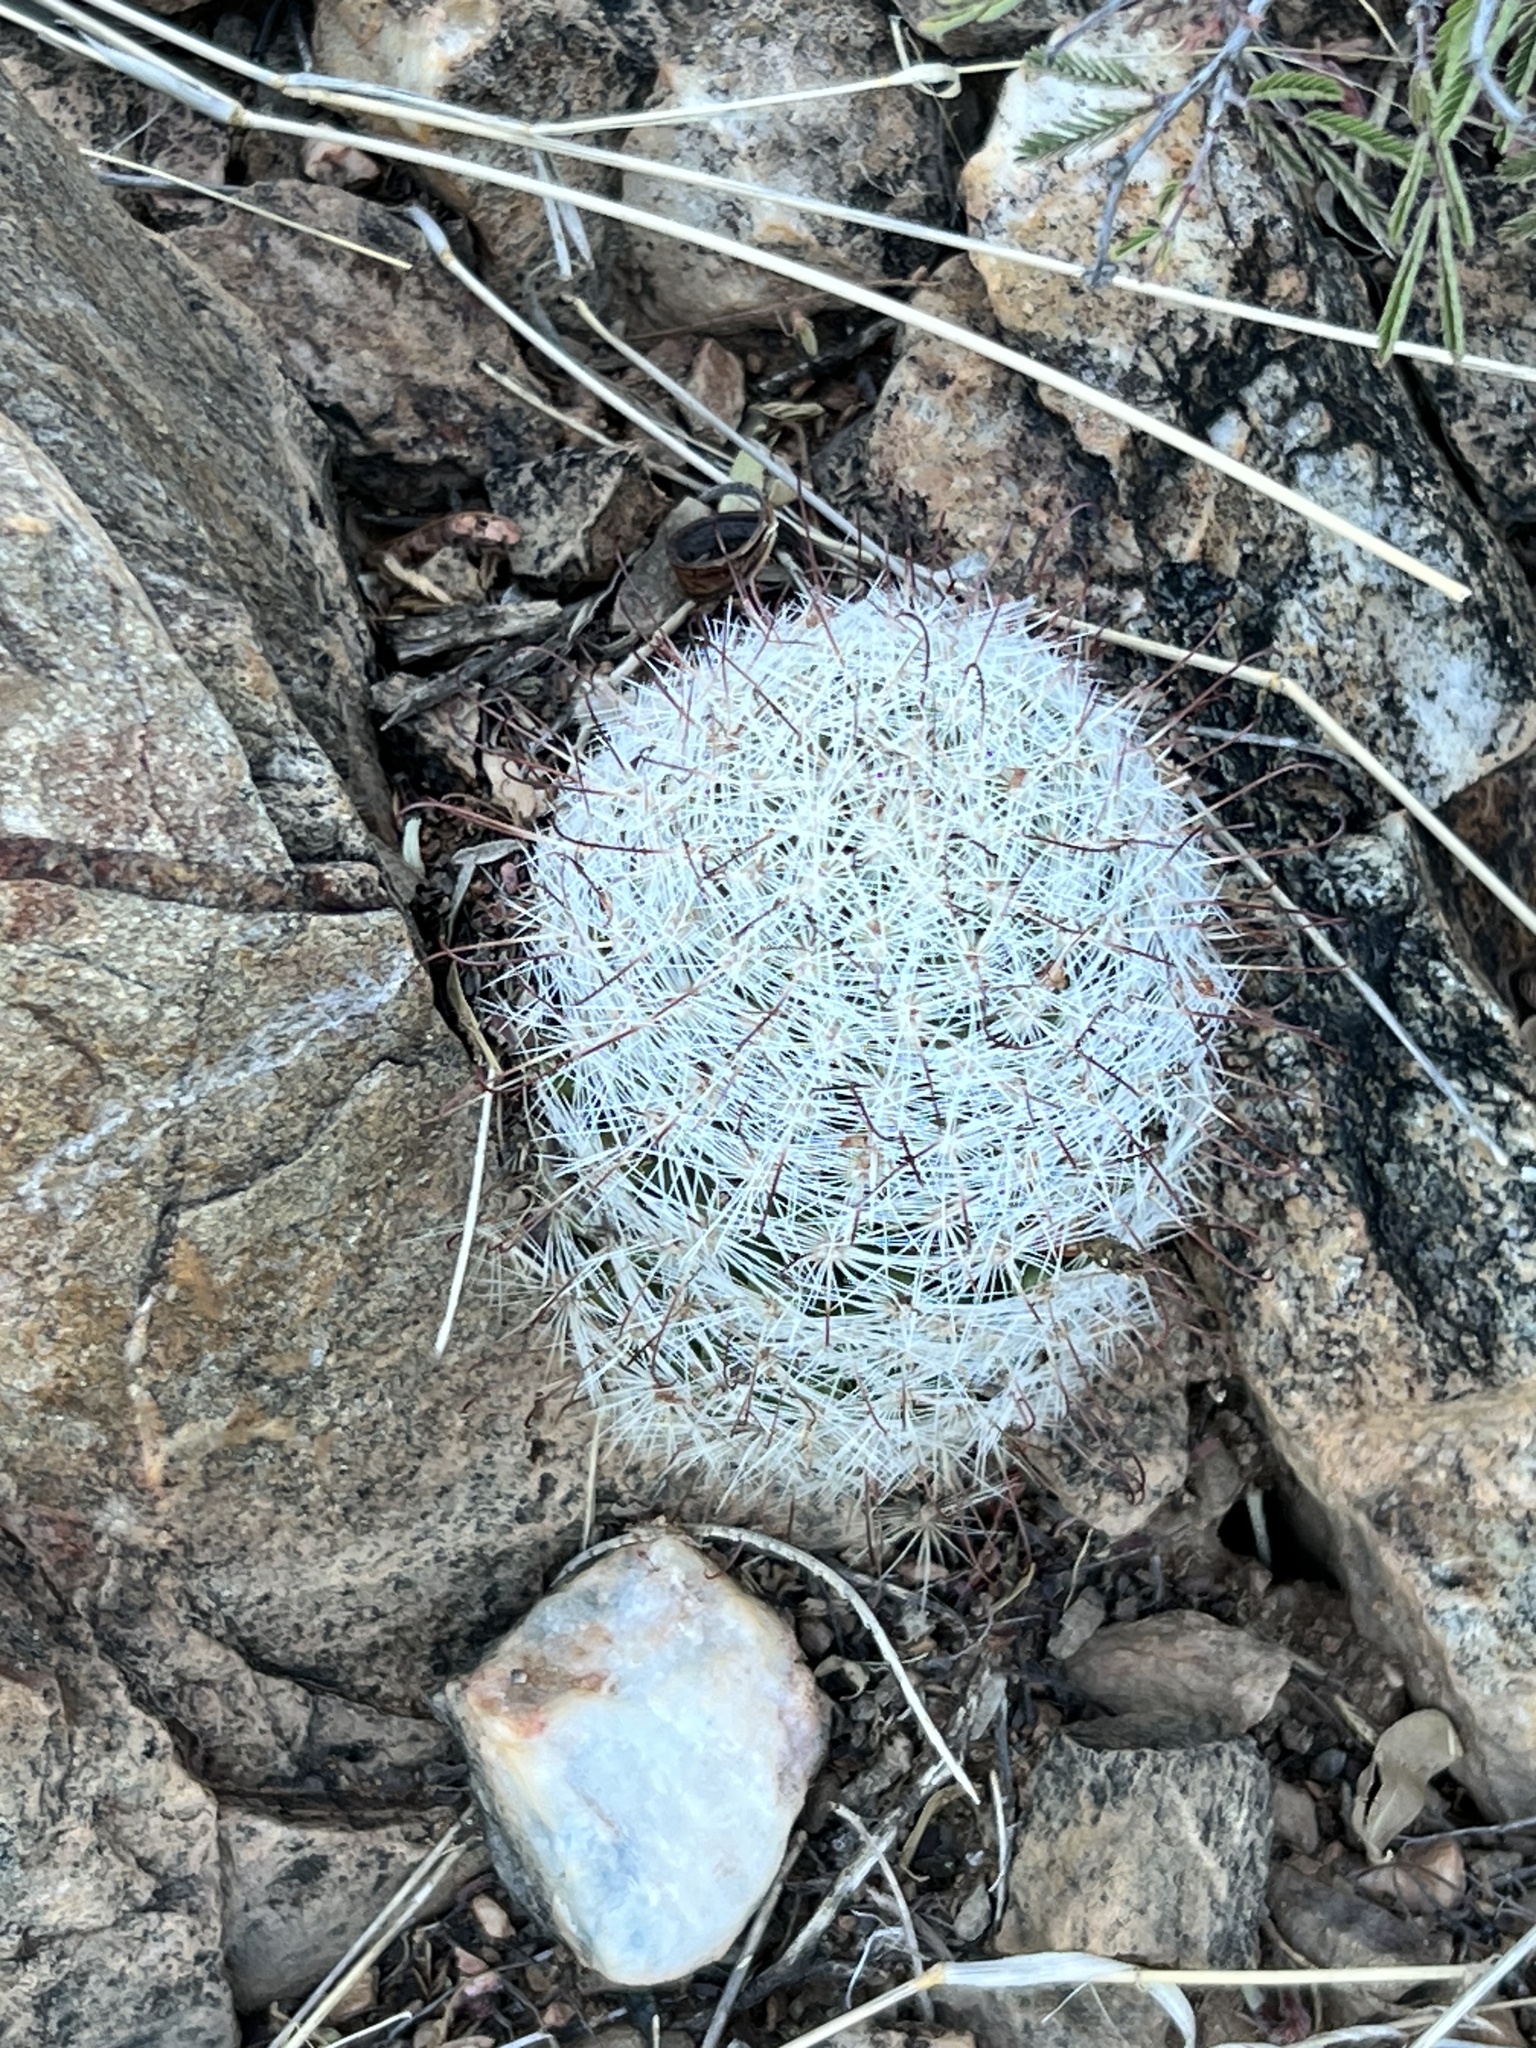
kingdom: Plantae
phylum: Tracheophyta
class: Magnoliopsida
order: Caryophyllales
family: Cactaceae
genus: Cochemiea
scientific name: Cochemiea grahamii
